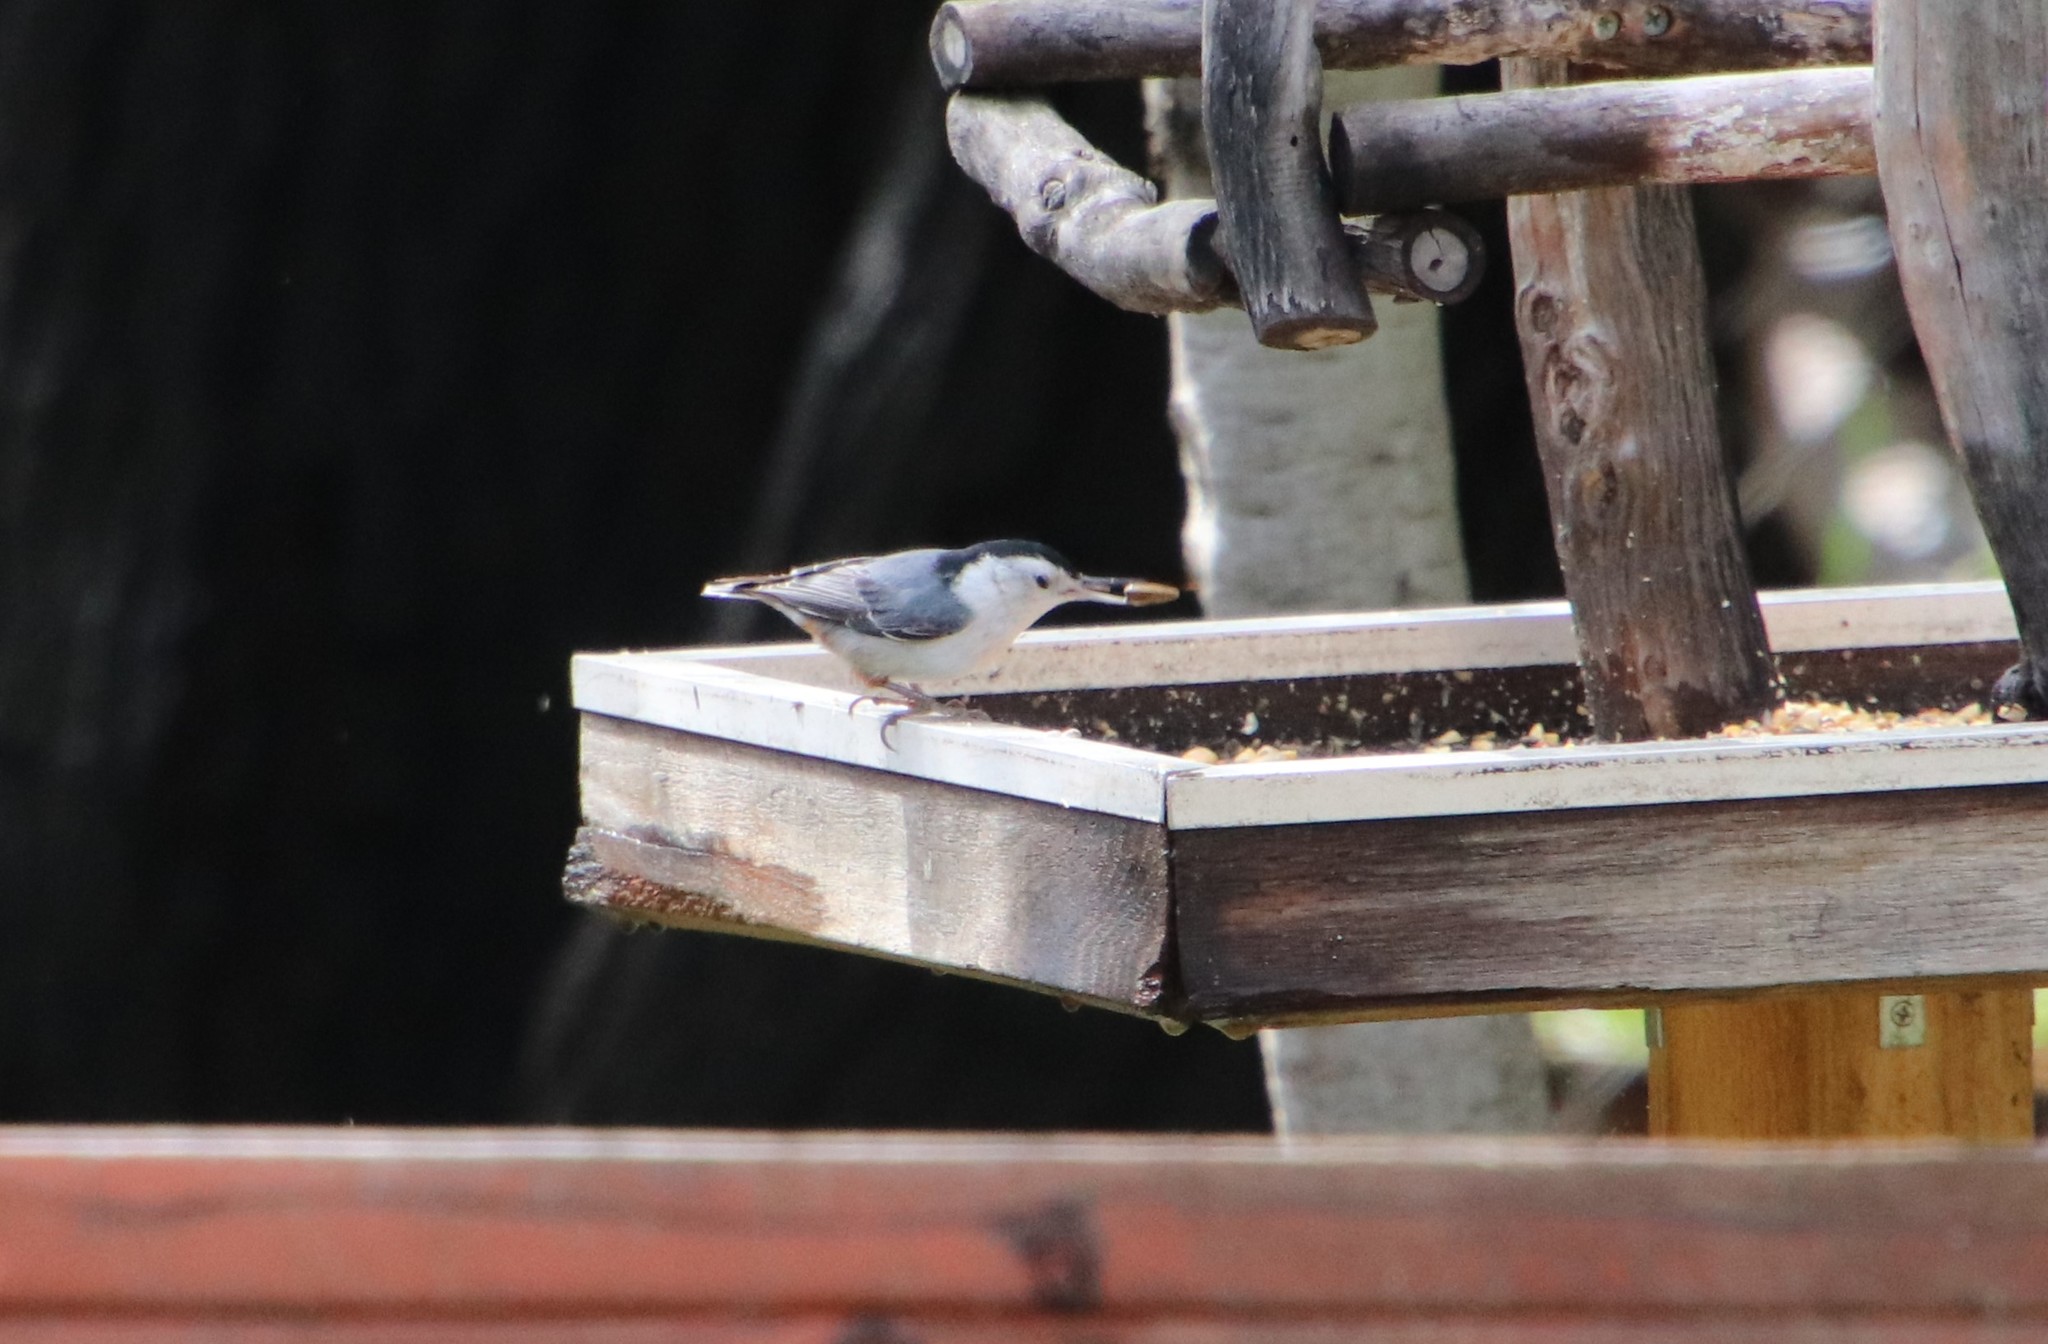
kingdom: Animalia
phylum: Chordata
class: Aves
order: Passeriformes
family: Sittidae
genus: Sitta
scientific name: Sitta carolinensis
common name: White-breasted nuthatch
